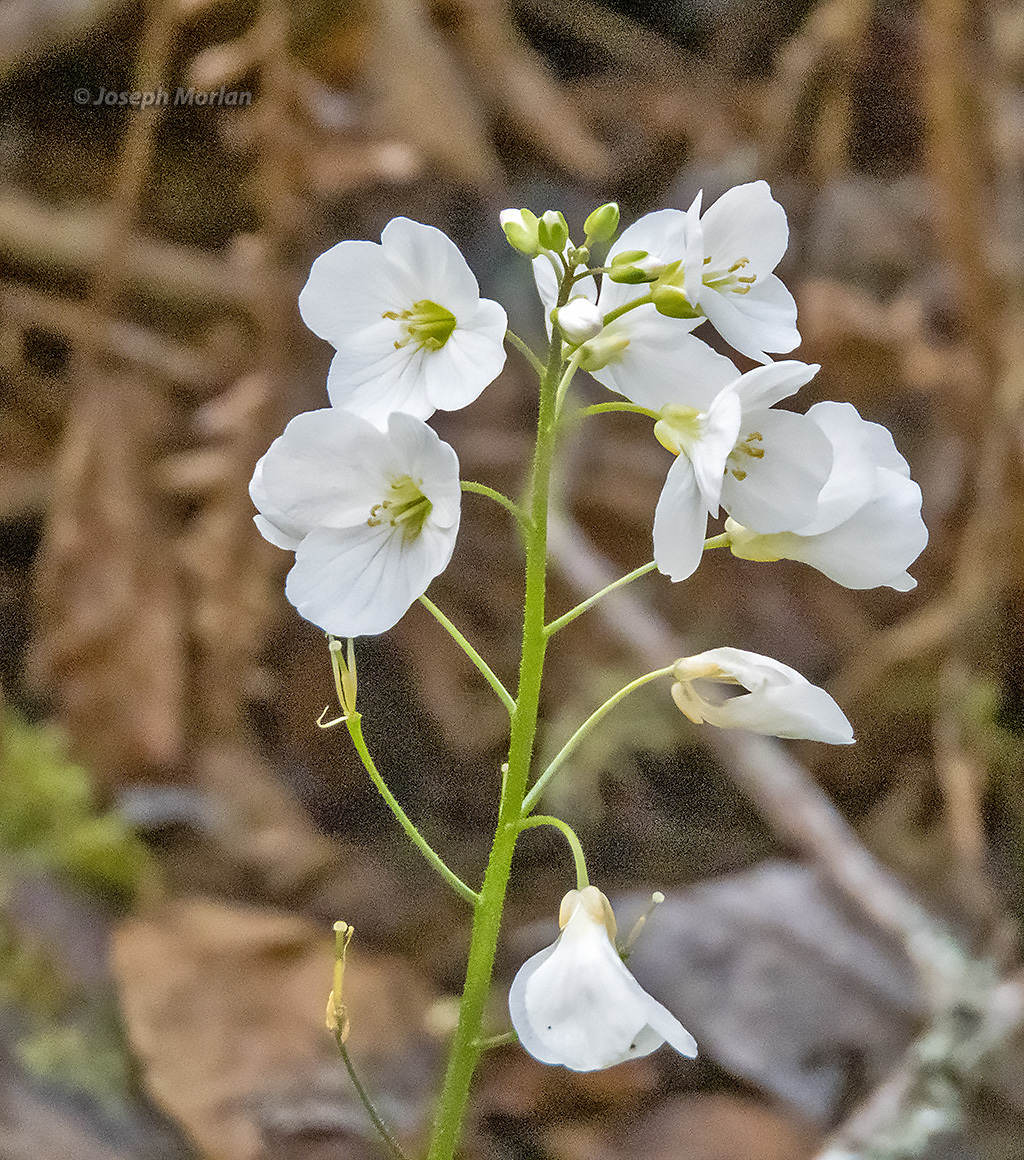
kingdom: Plantae
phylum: Tracheophyta
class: Magnoliopsida
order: Brassicales
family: Brassicaceae
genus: Cardamine
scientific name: Cardamine californica
